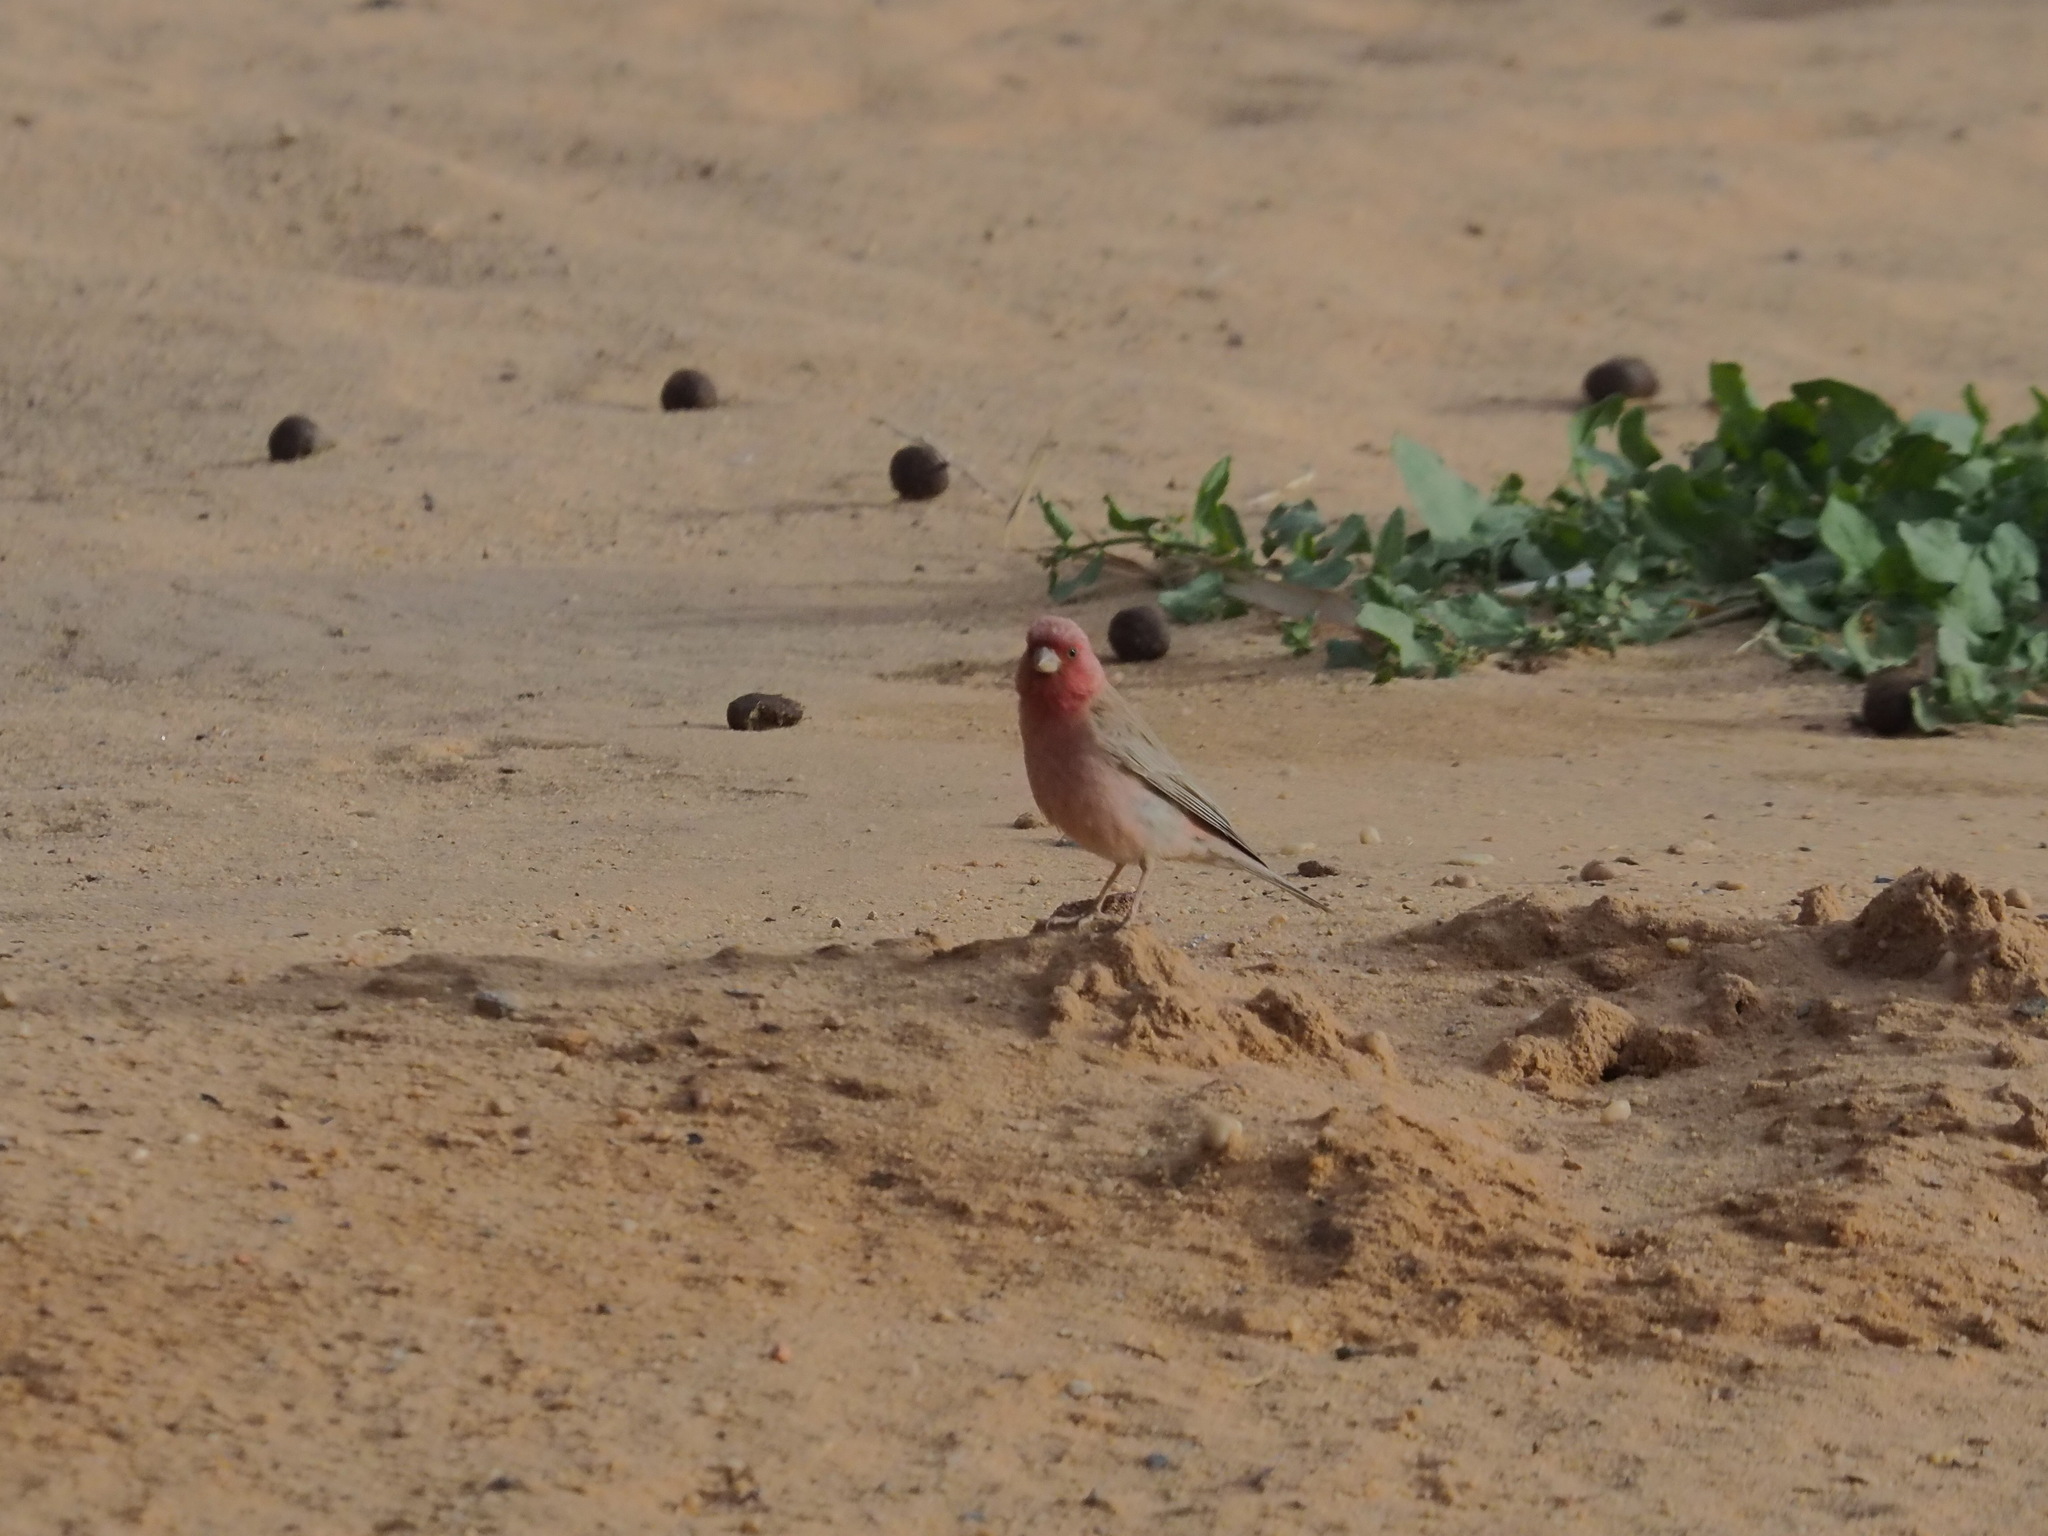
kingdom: Animalia
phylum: Chordata
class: Aves
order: Passeriformes
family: Fringillidae
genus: Carpodacus
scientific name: Carpodacus synoicus
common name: Sinai rosefinch
